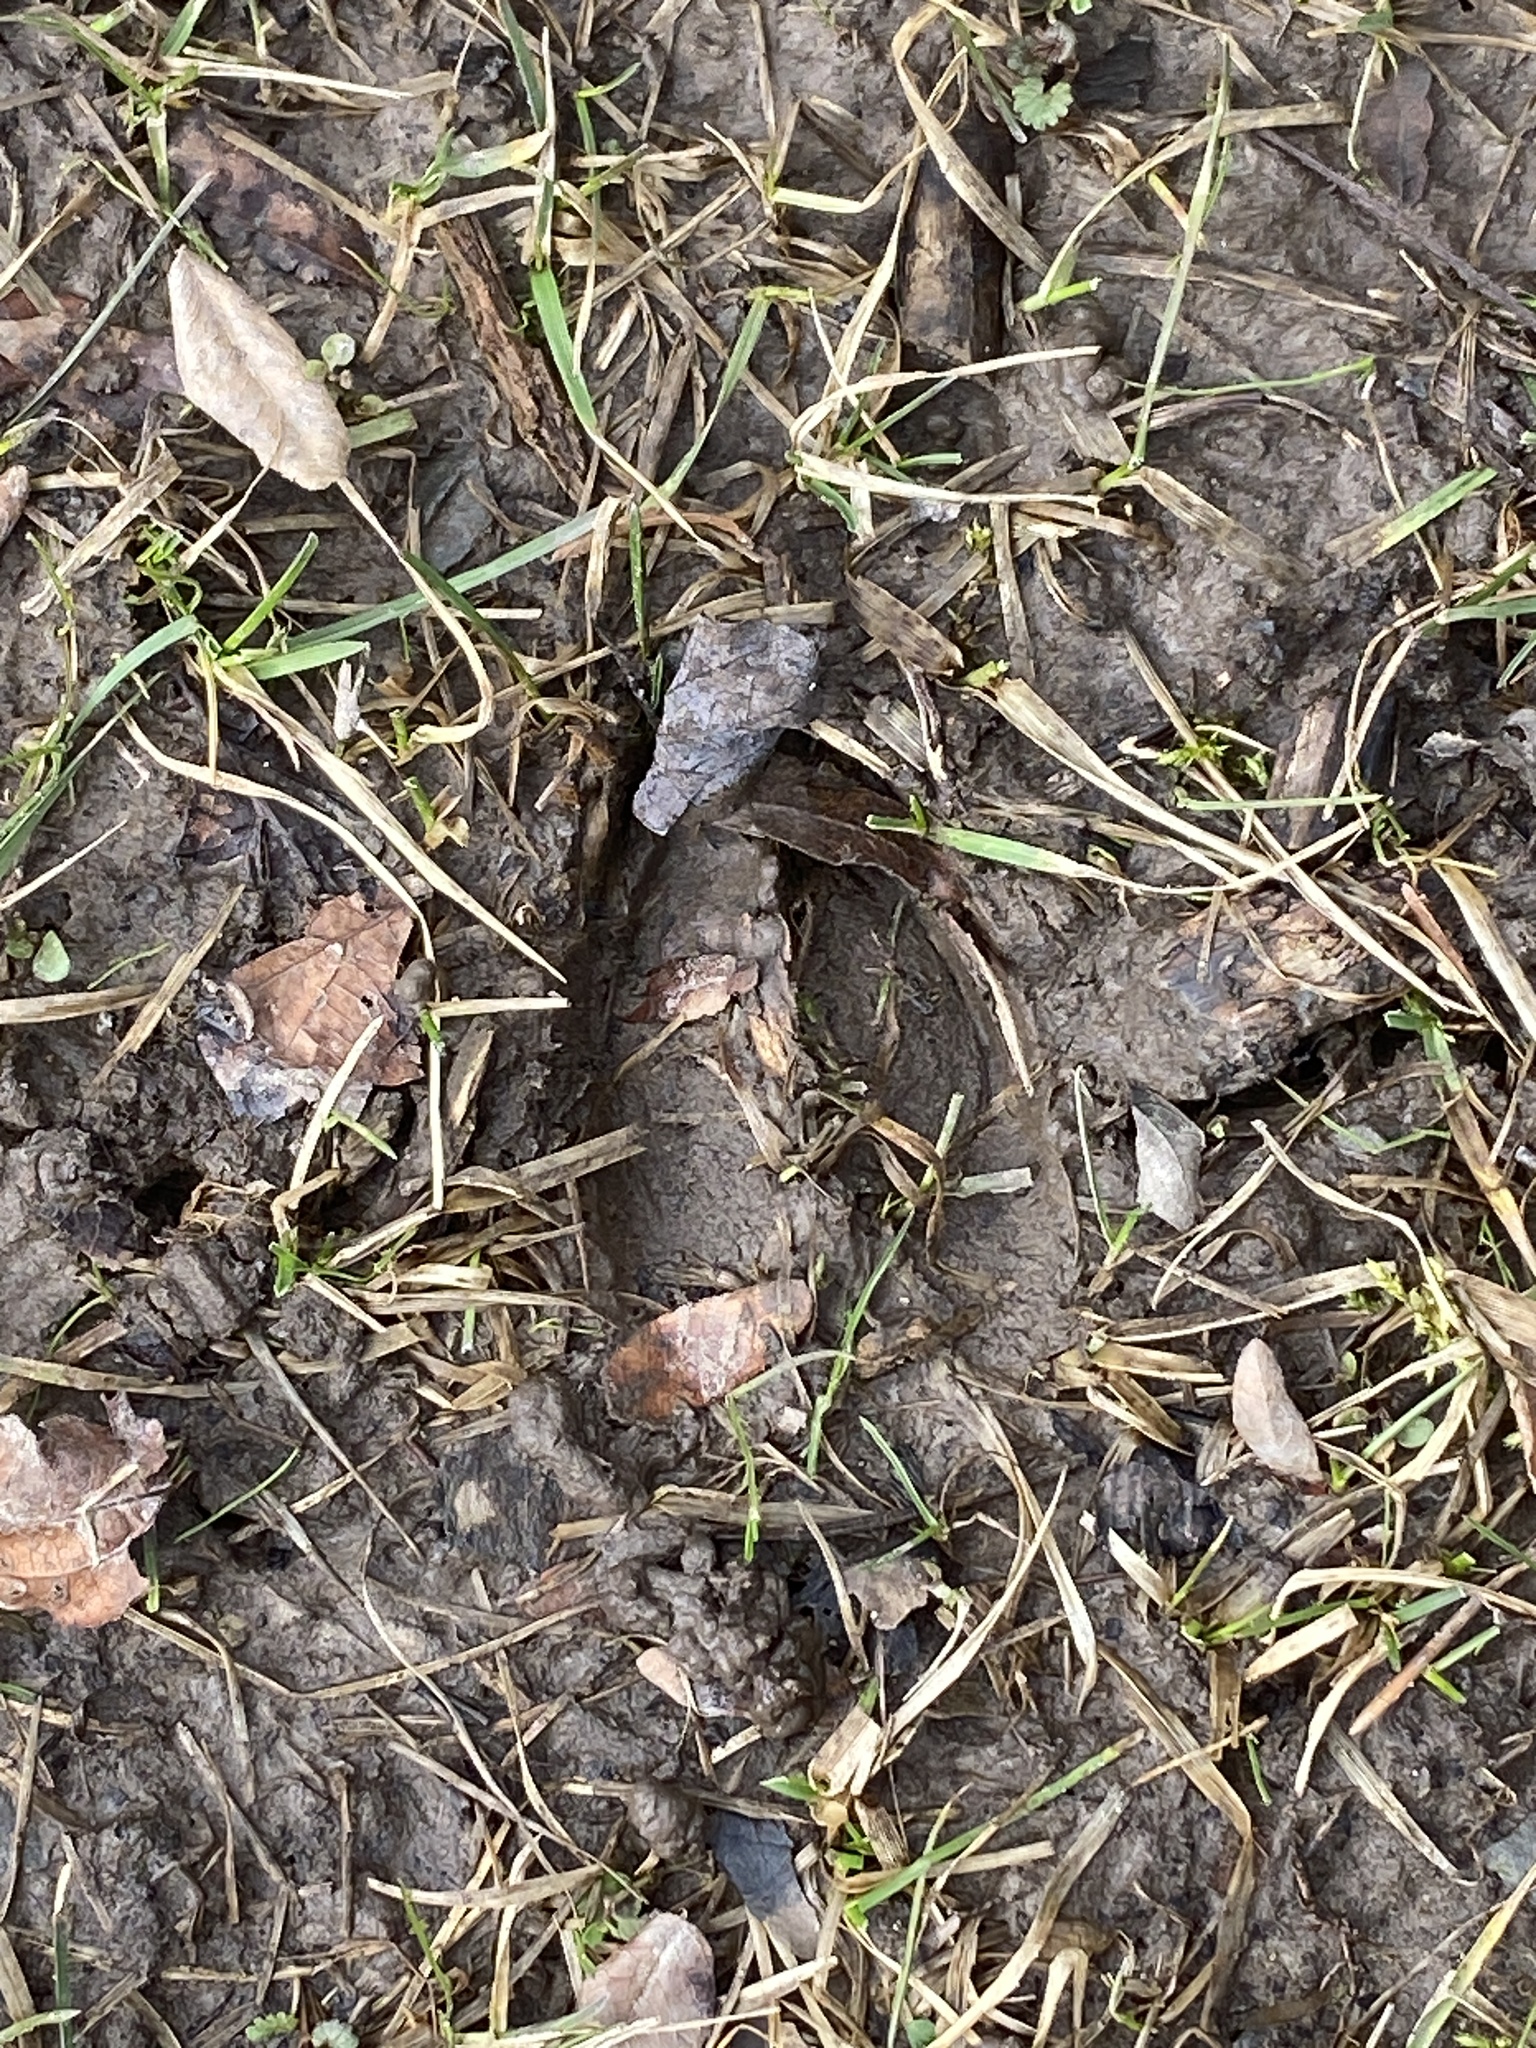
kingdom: Animalia
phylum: Chordata
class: Mammalia
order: Artiodactyla
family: Cervidae
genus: Odocoileus
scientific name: Odocoileus virginianus
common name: White-tailed deer
